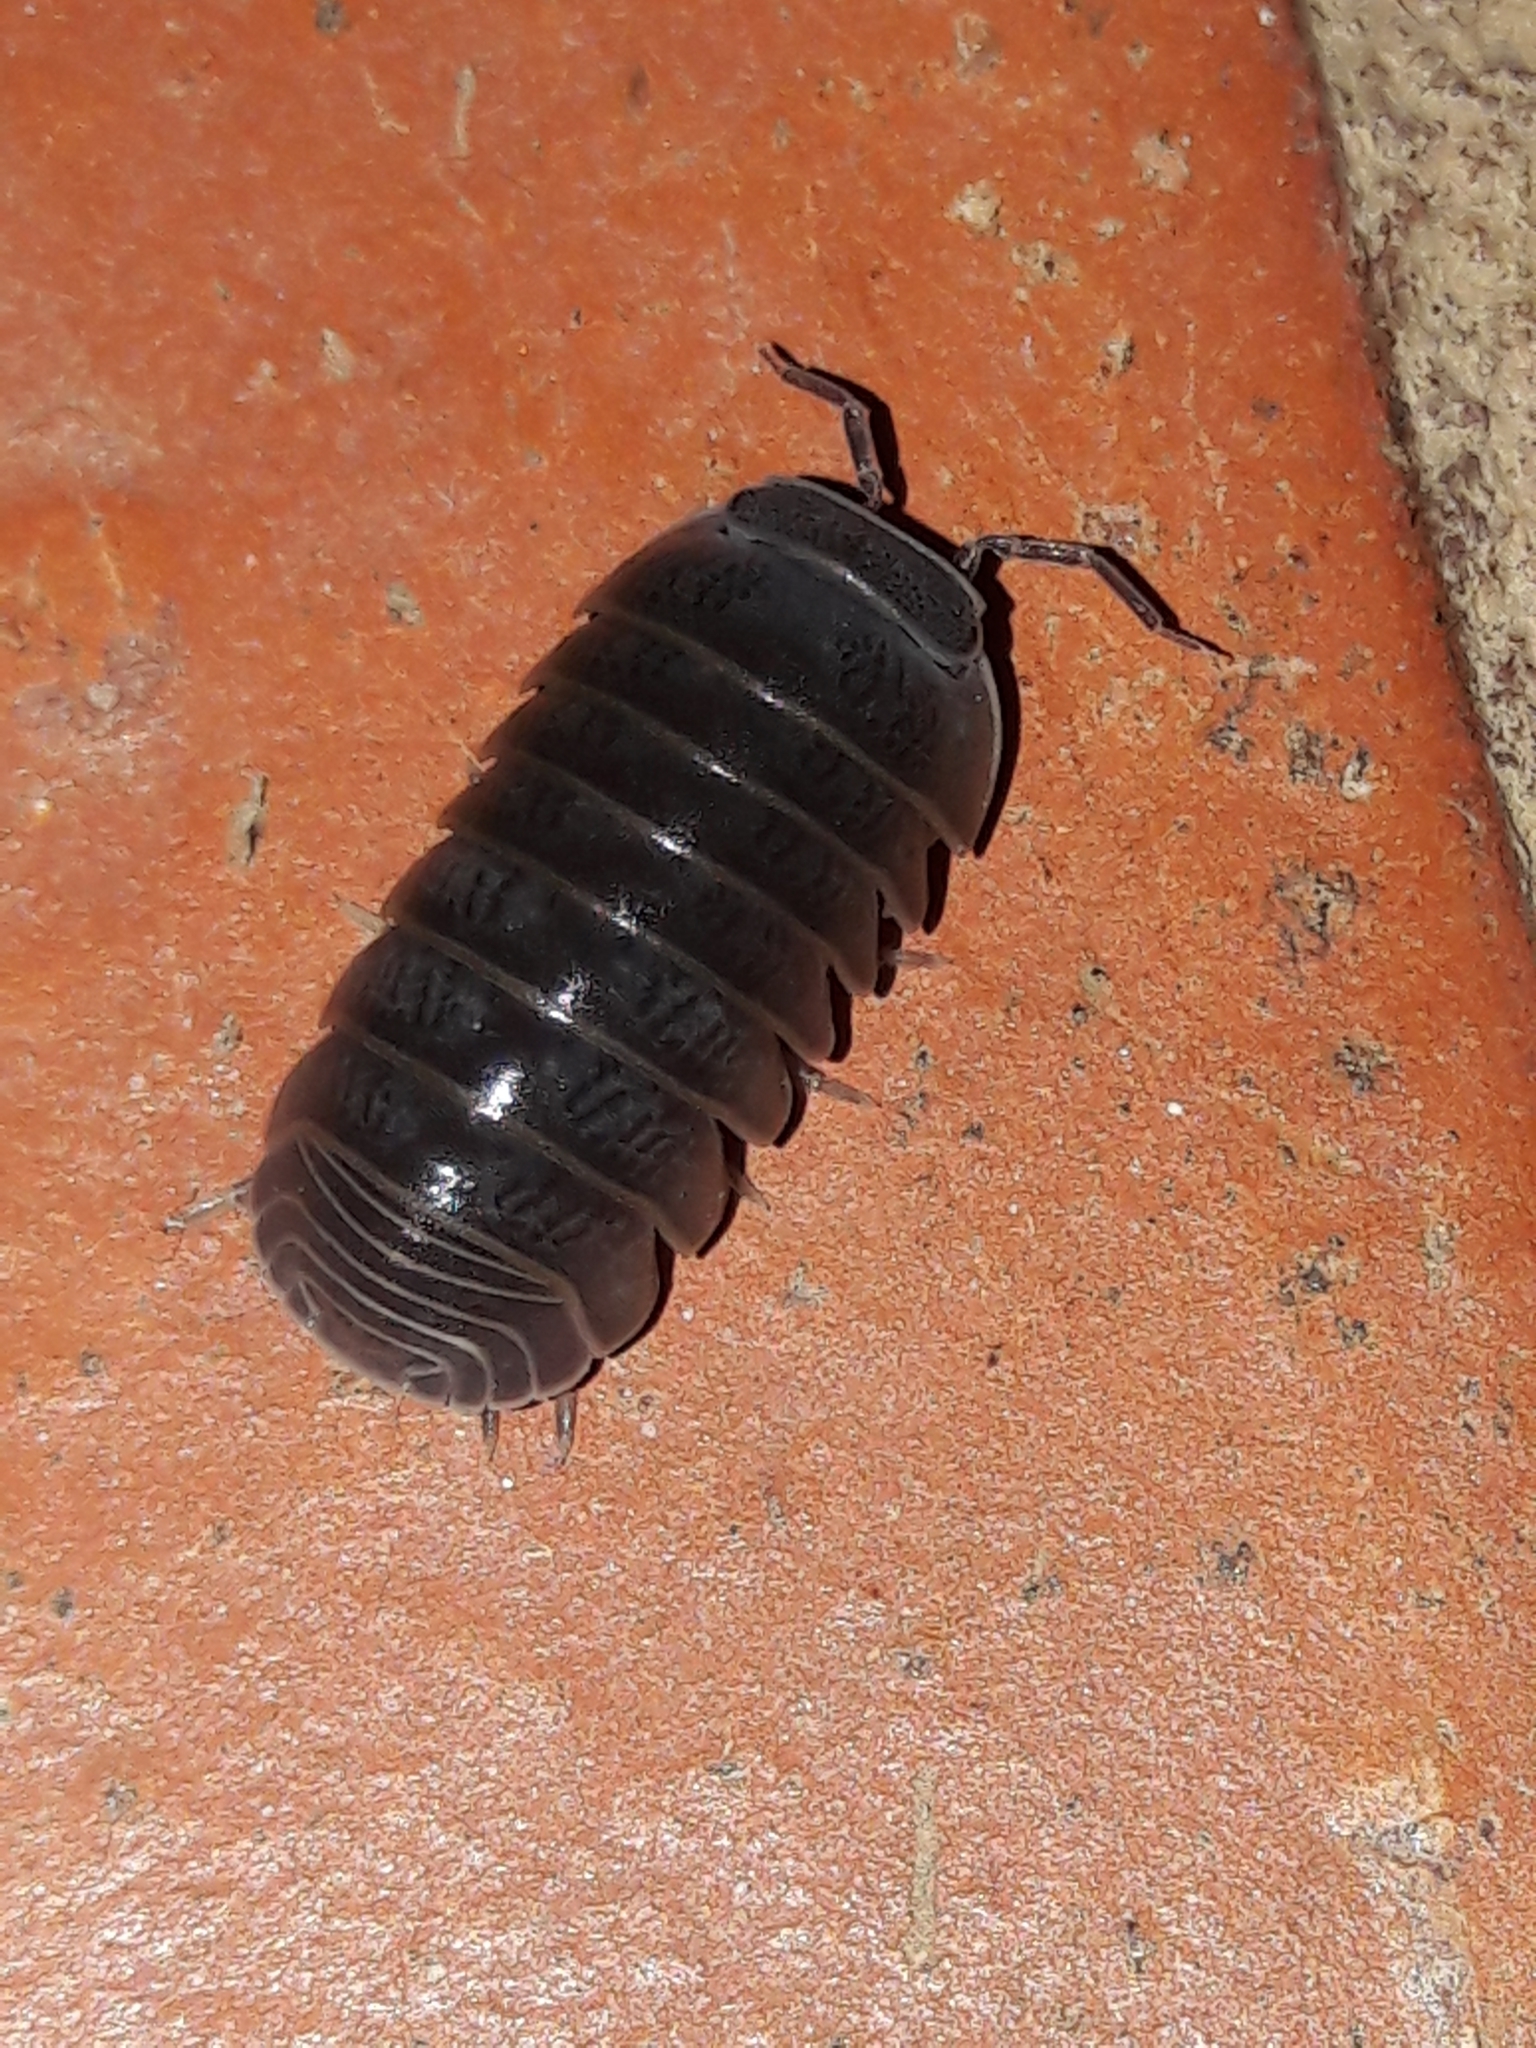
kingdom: Animalia
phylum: Arthropoda
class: Malacostraca
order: Isopoda
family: Armadillidae
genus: Armadillo
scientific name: Armadillo officinalis
